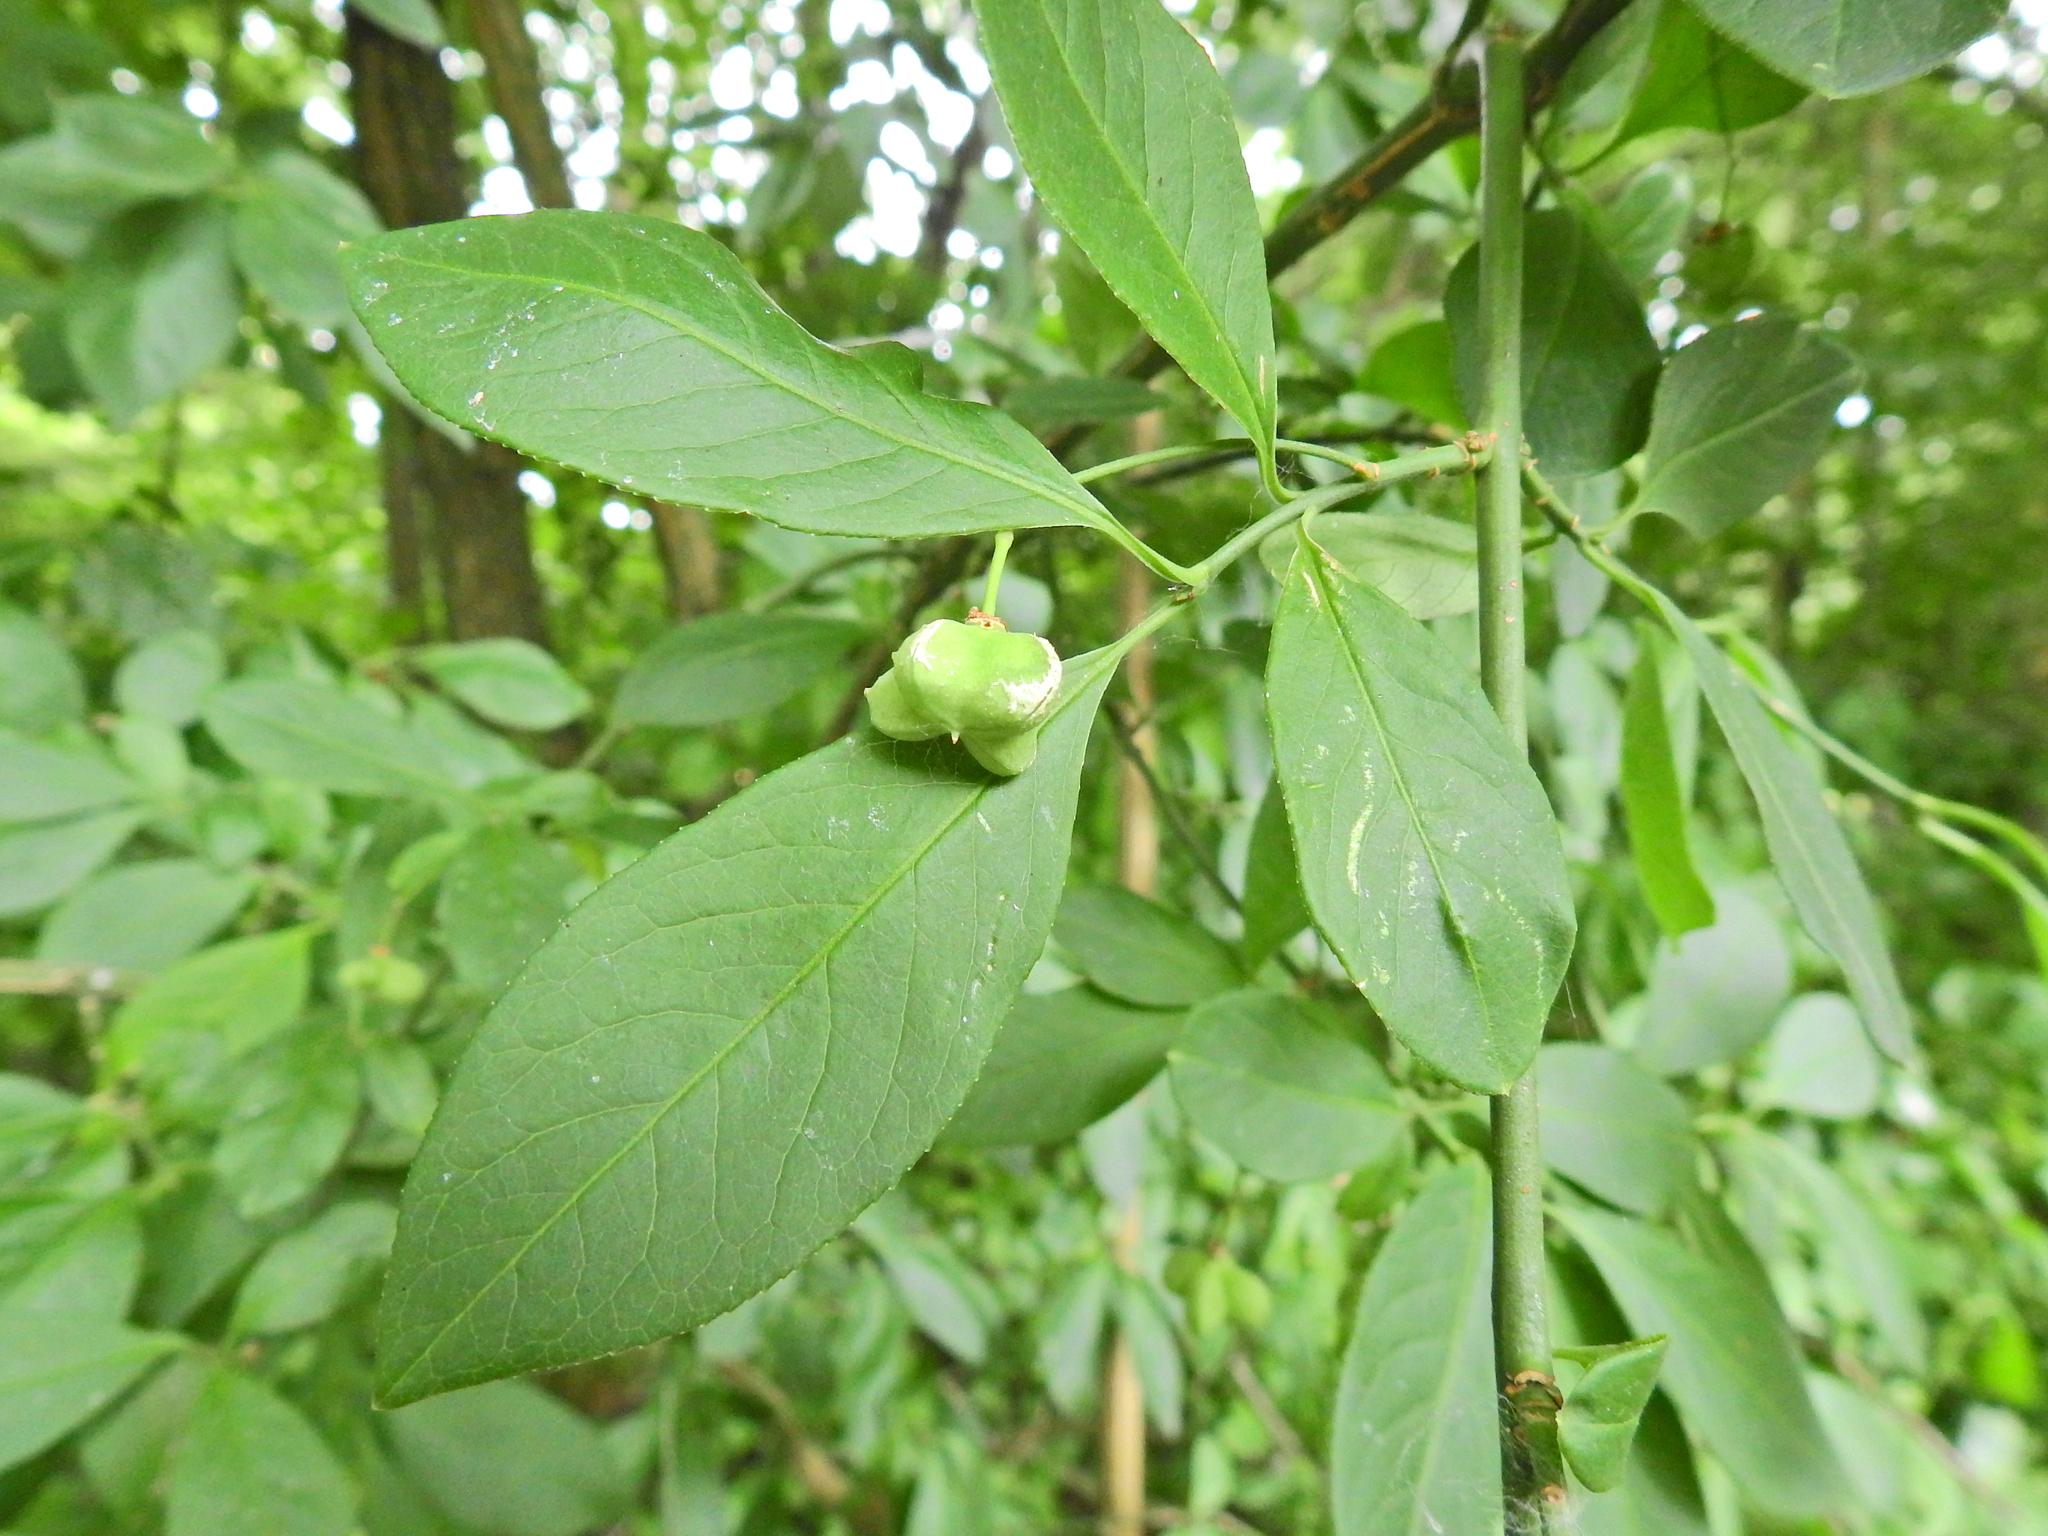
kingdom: Plantae
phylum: Tracheophyta
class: Magnoliopsida
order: Celastrales
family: Celastraceae
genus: Euonymus
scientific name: Euonymus europaeus
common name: Spindle
